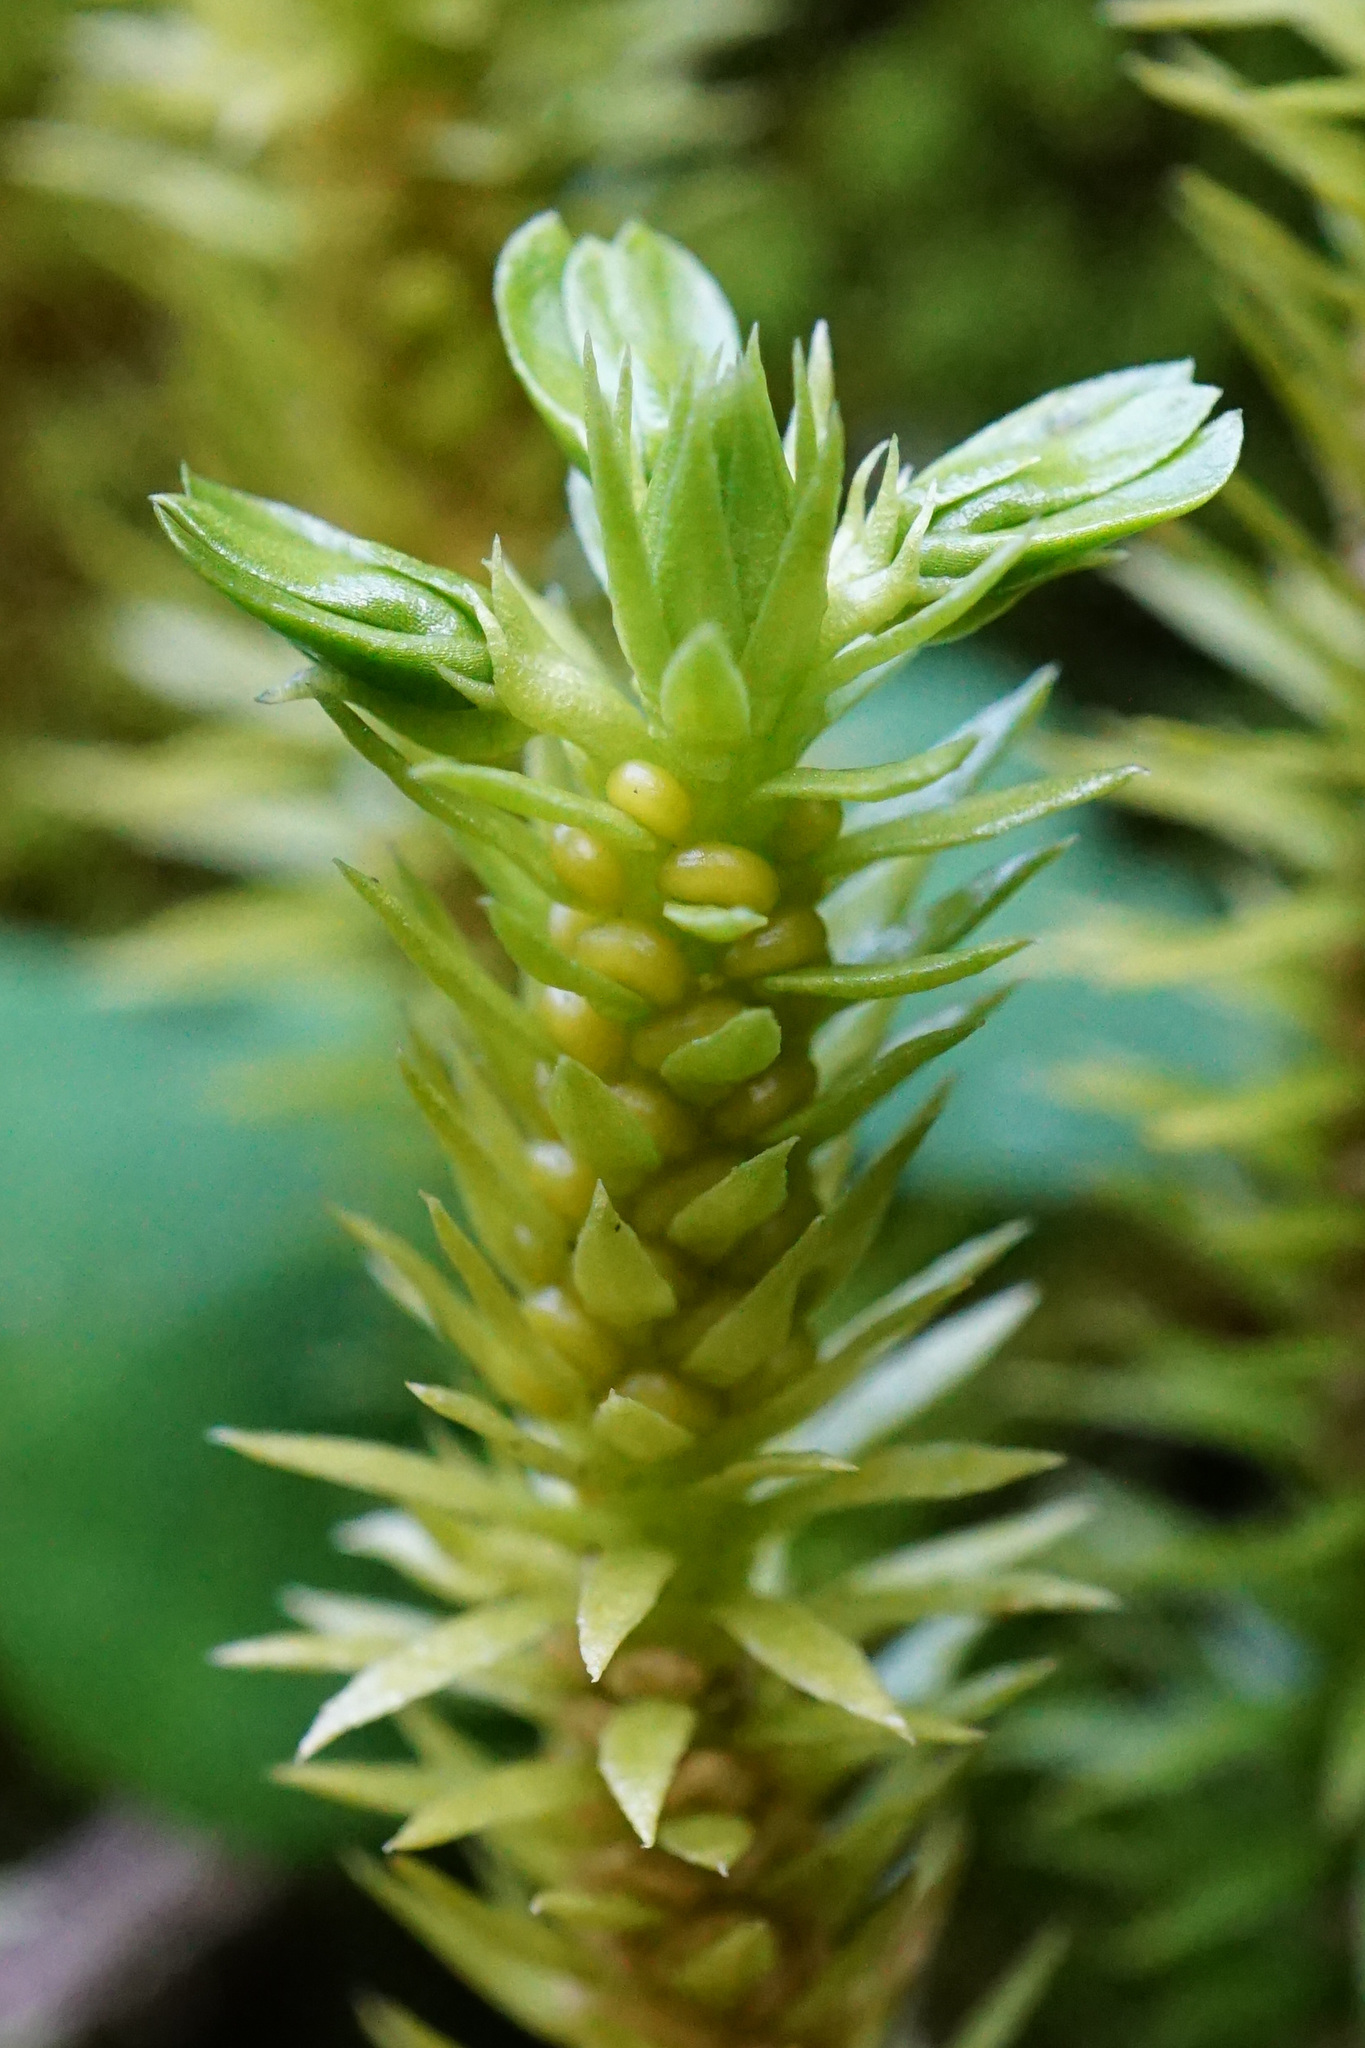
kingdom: Plantae
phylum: Tracheophyta
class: Lycopodiopsida
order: Lycopodiales
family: Lycopodiaceae
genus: Huperzia
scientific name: Huperzia selago
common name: Northern firmoss
